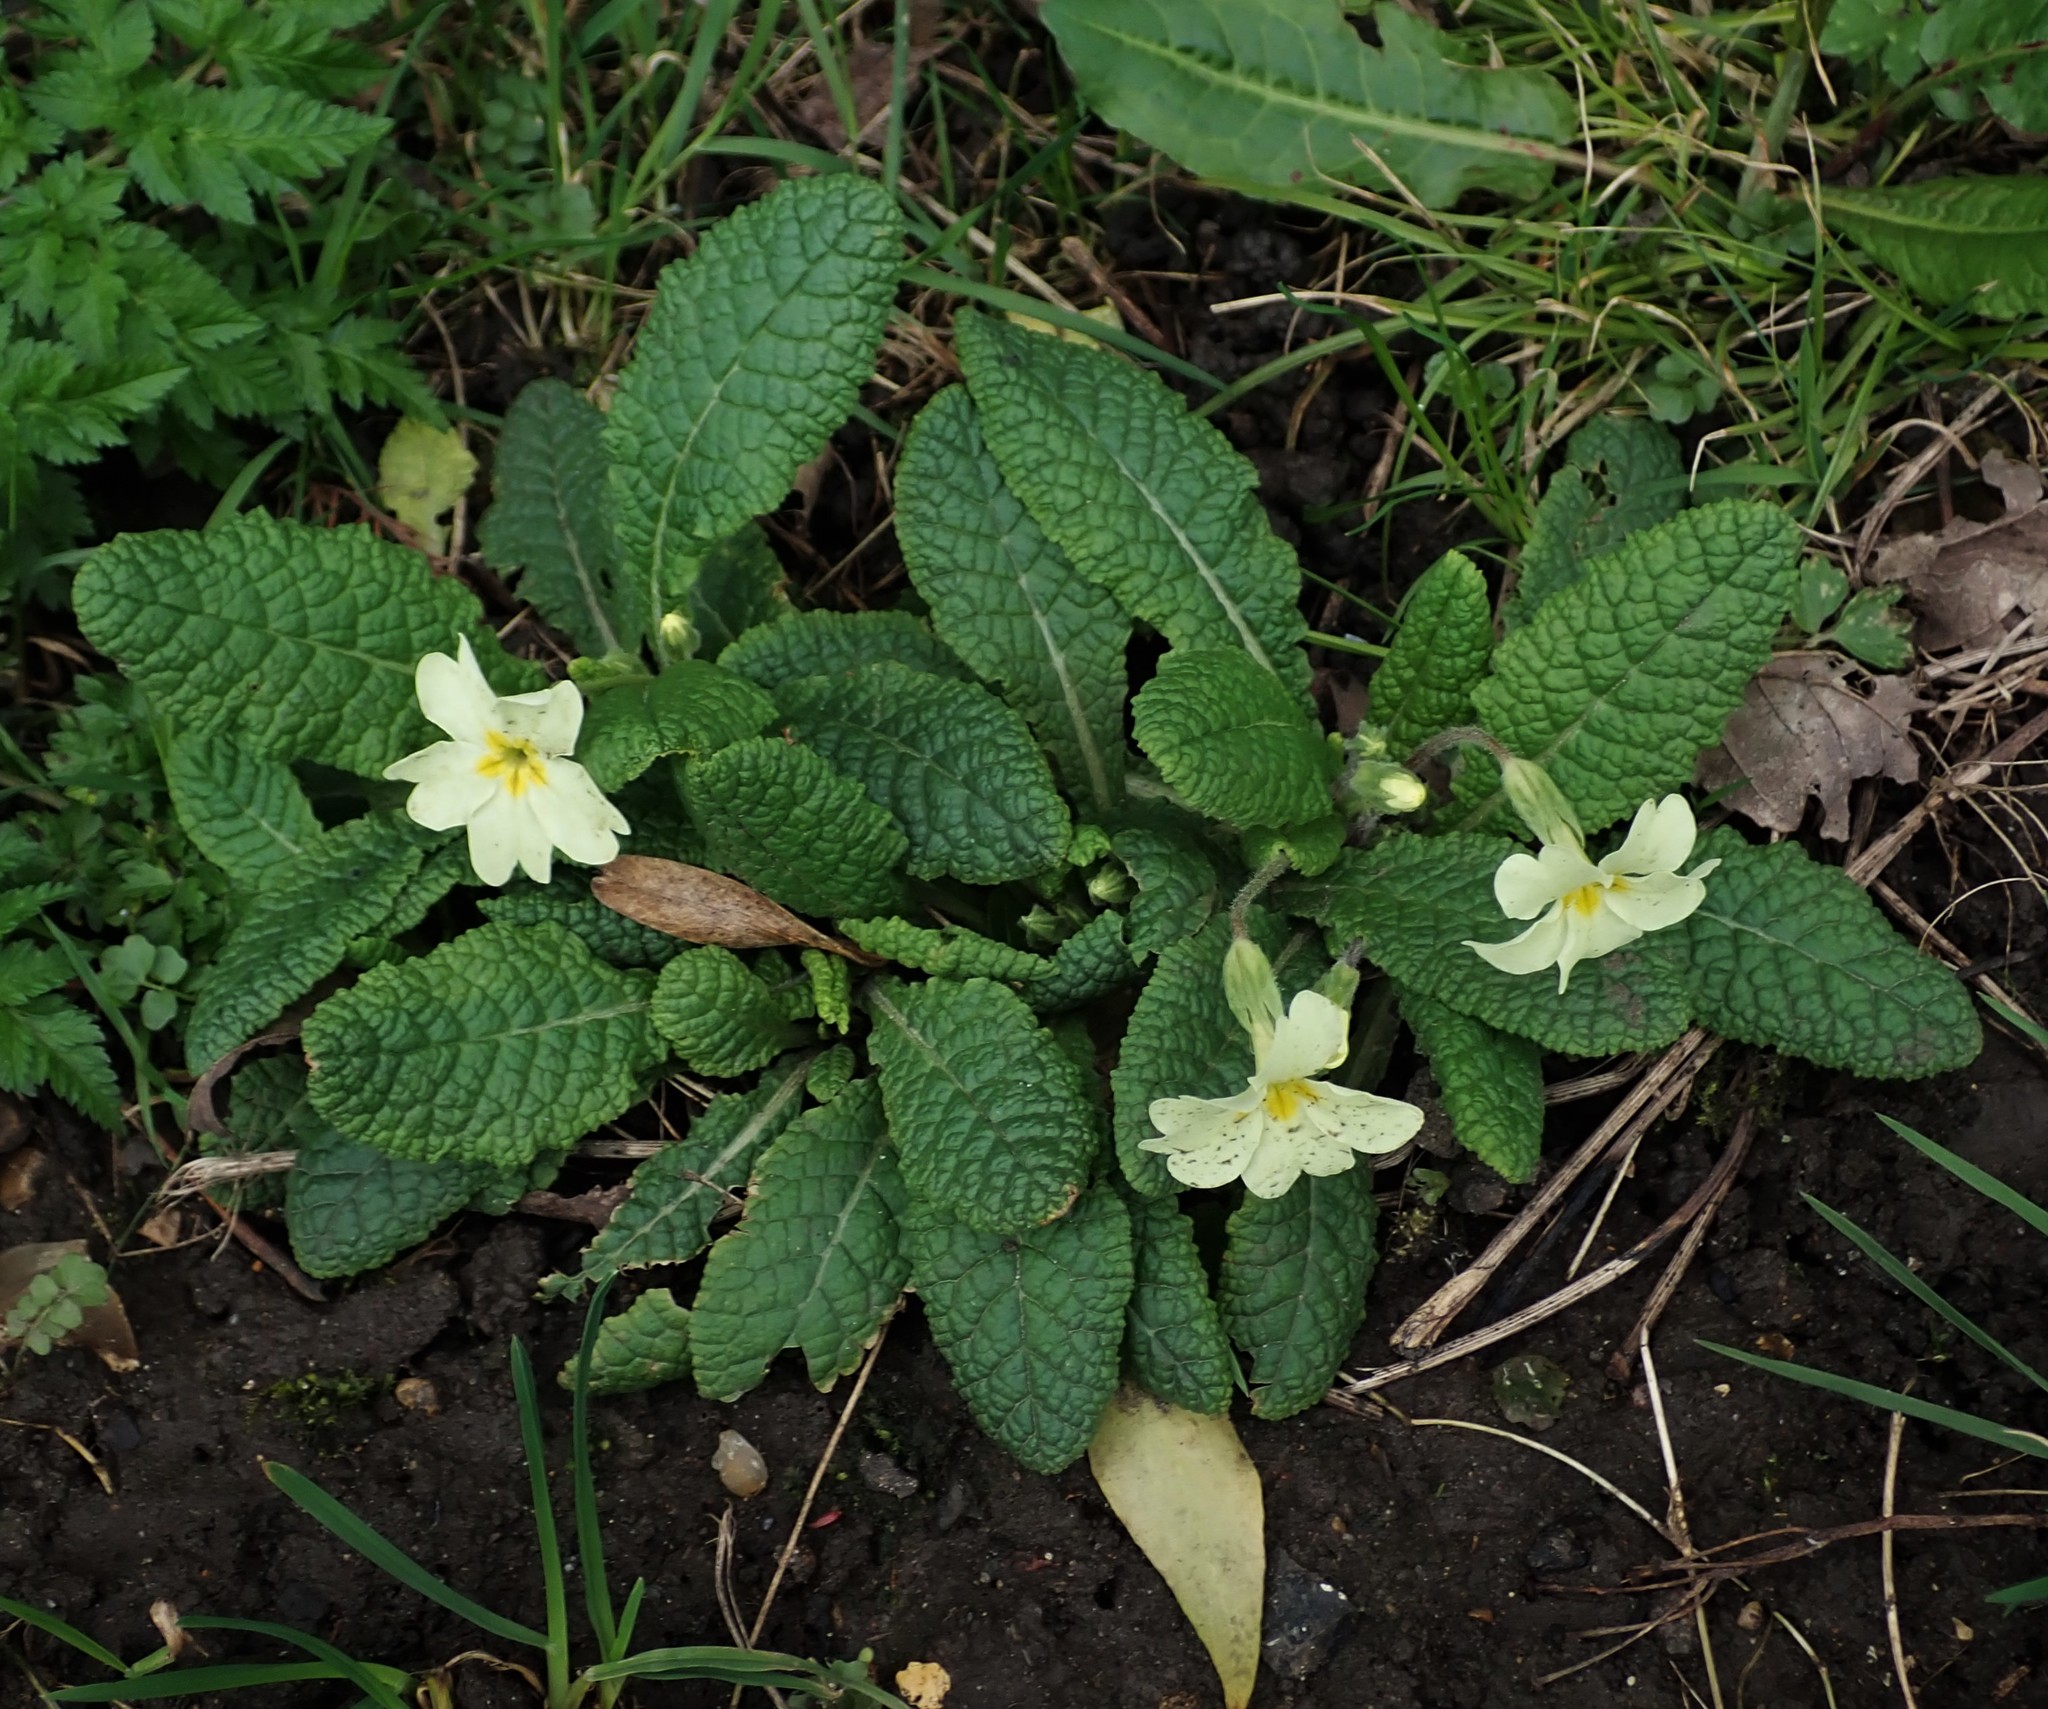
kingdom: Plantae
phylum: Tracheophyta
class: Magnoliopsida
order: Ericales
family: Primulaceae
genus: Primula
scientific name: Primula vulgaris
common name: Primrose
